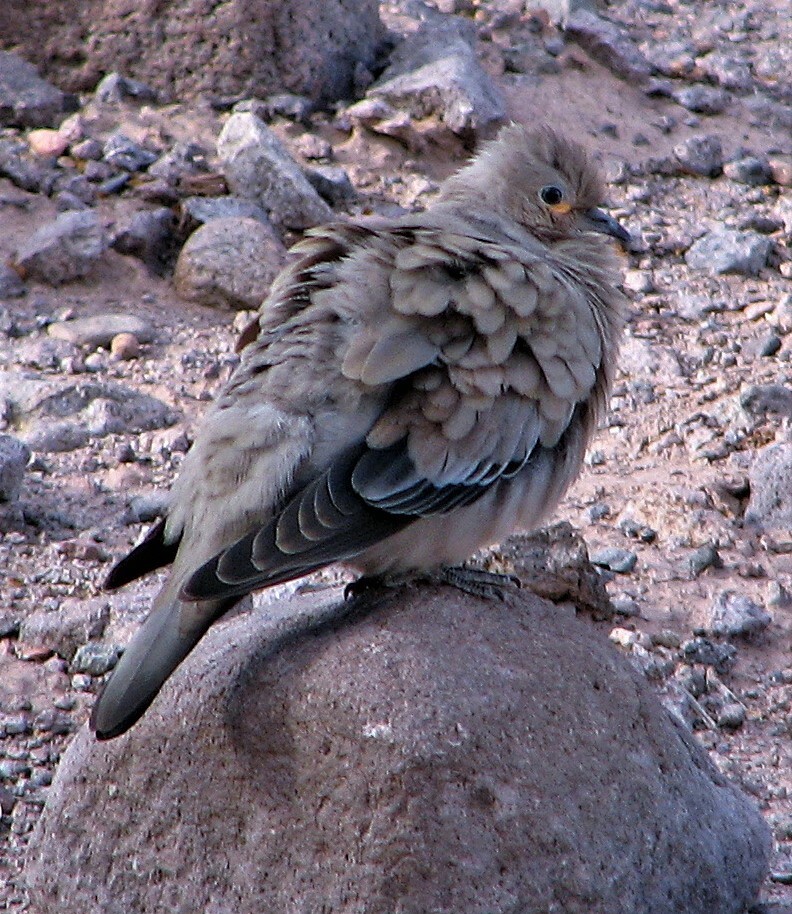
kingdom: Animalia
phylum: Chordata
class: Aves
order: Columbiformes
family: Columbidae
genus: Metriopelia
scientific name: Metriopelia melanoptera
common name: Black-winged ground dove
